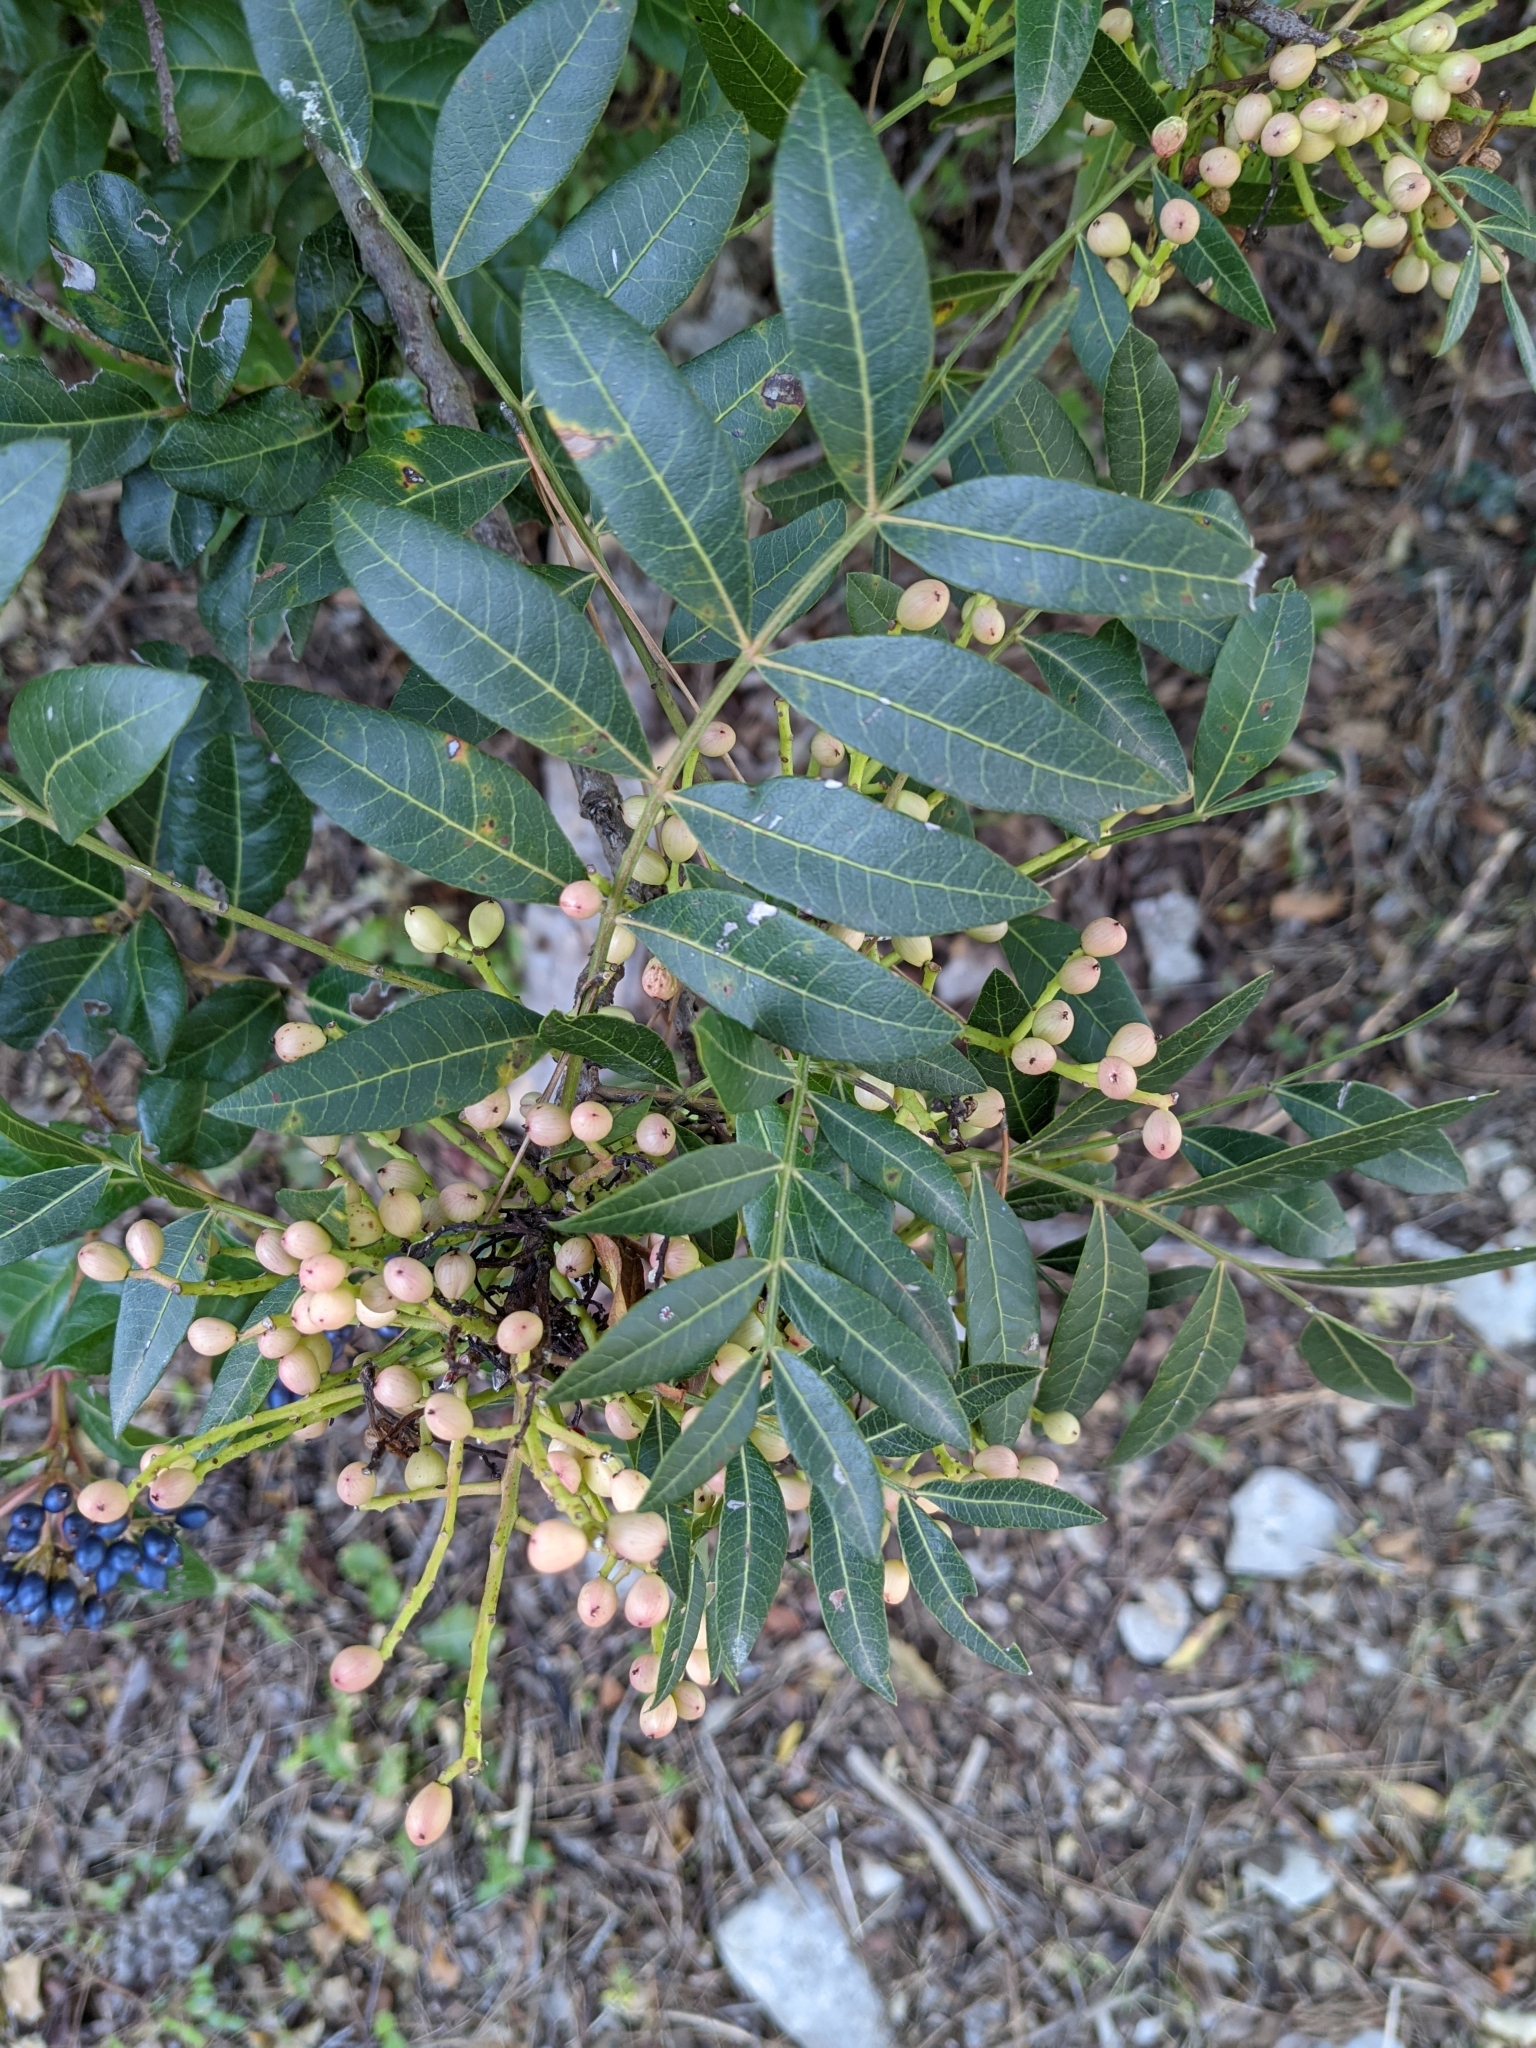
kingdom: Plantae
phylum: Tracheophyta
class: Magnoliopsida
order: Sapindales
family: Anacardiaceae
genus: Pistacia
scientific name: Pistacia saportae
